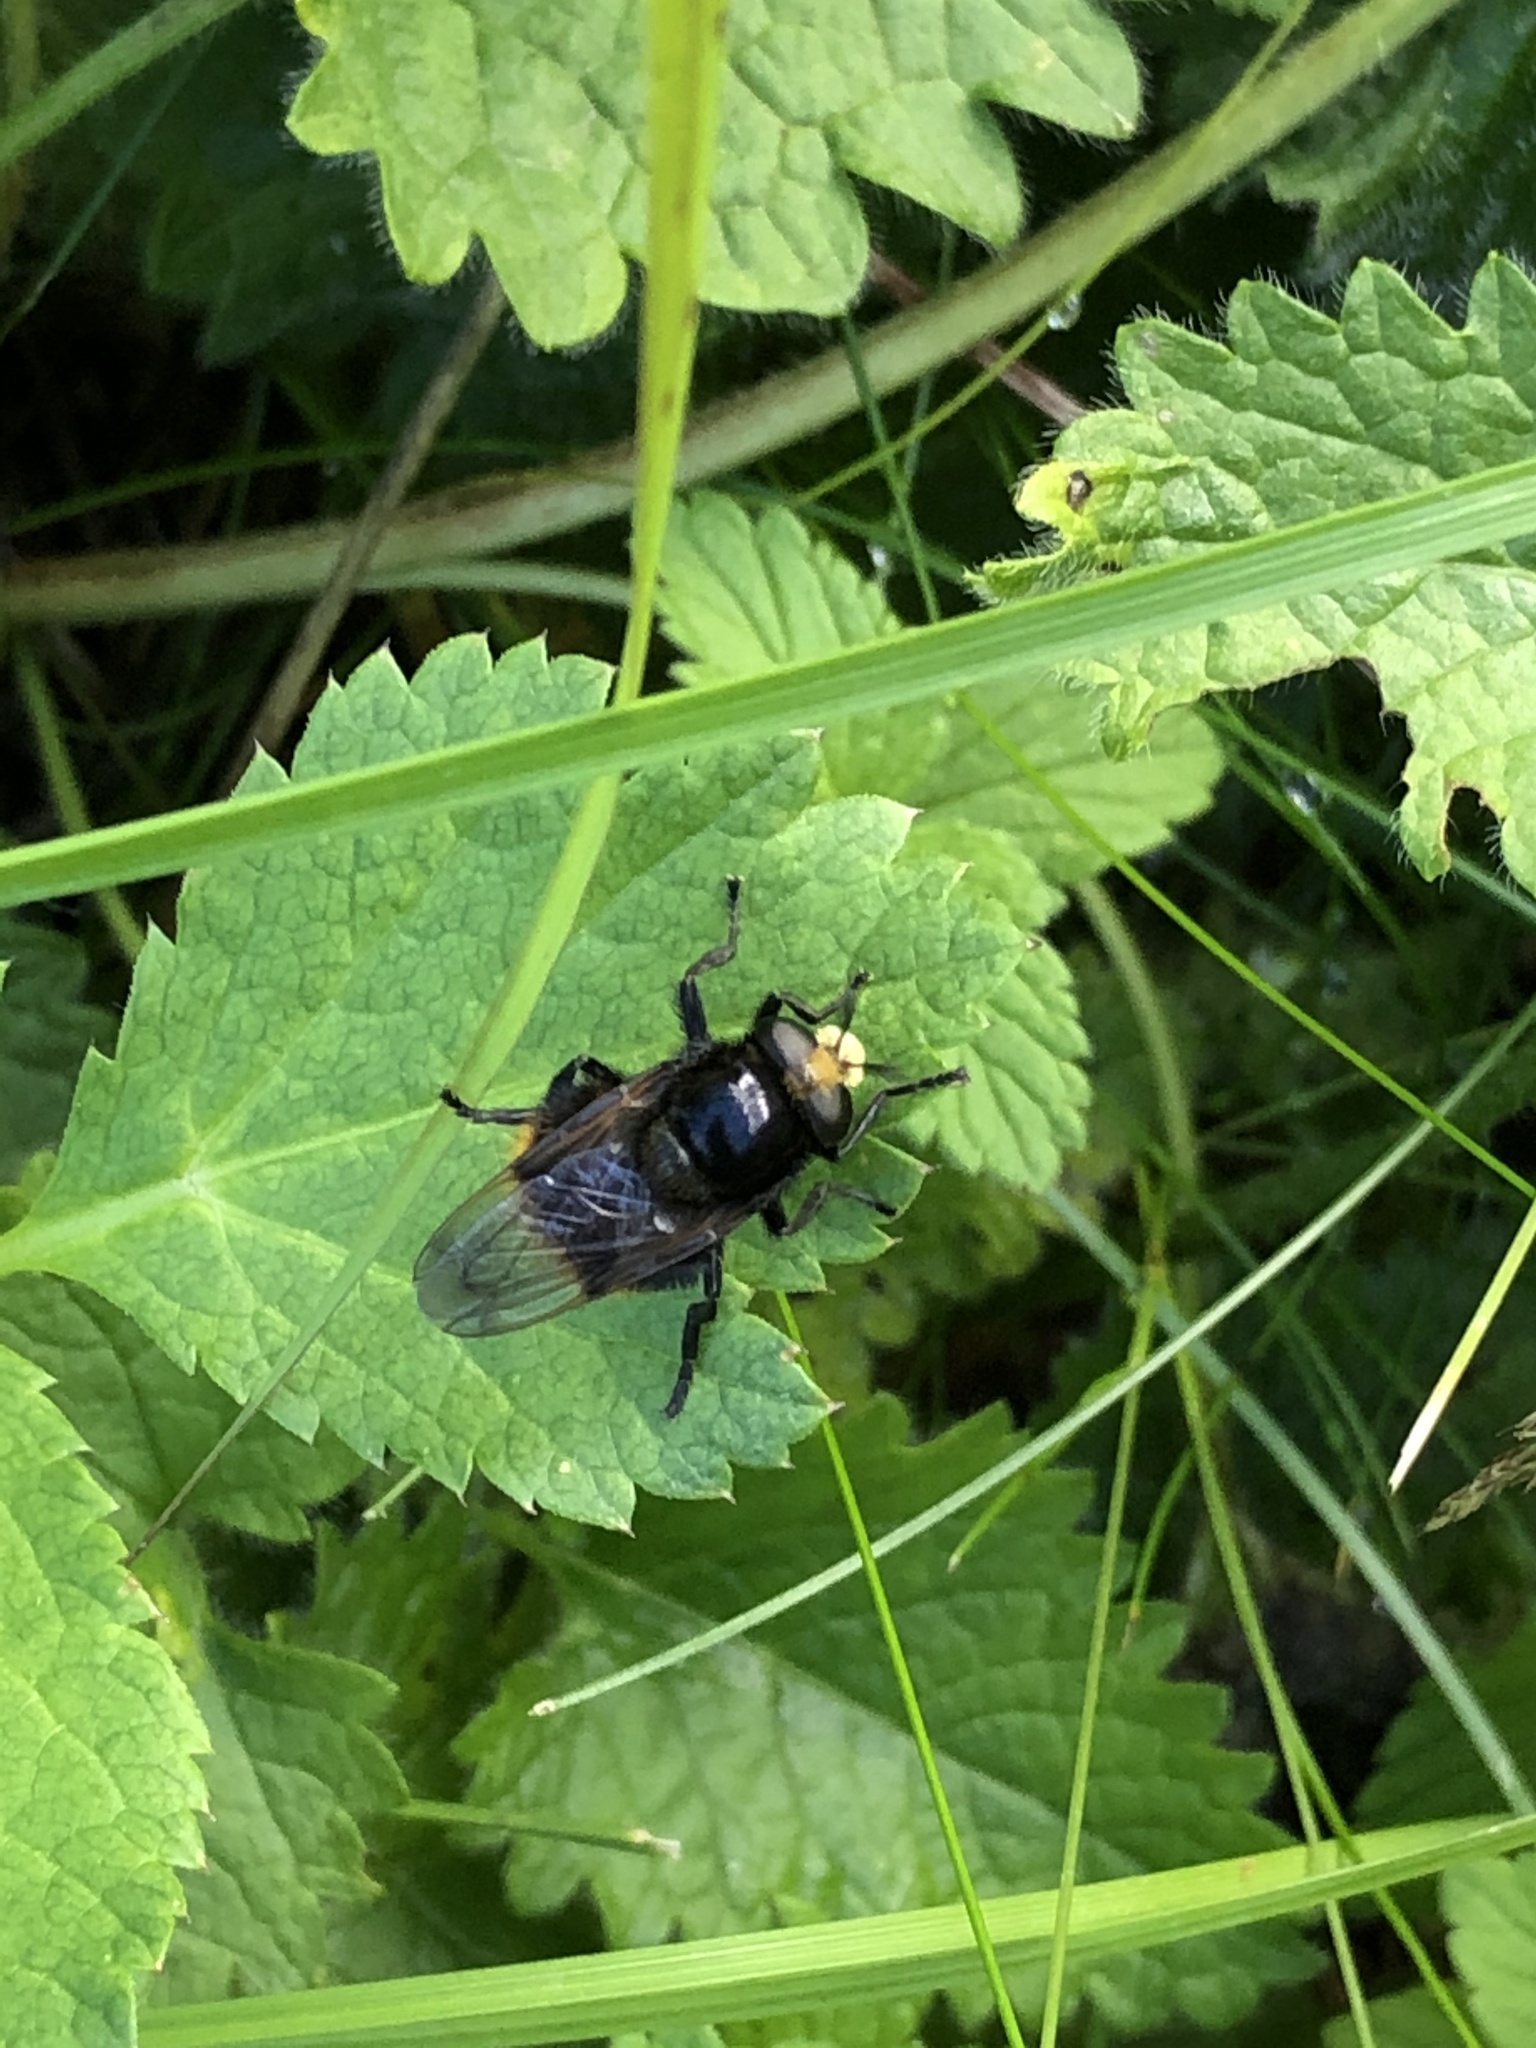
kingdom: Animalia
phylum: Arthropoda
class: Insecta
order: Diptera
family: Syrphidae
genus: Volucella
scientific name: Volucella bombylans
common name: Bumble bee hover fly
